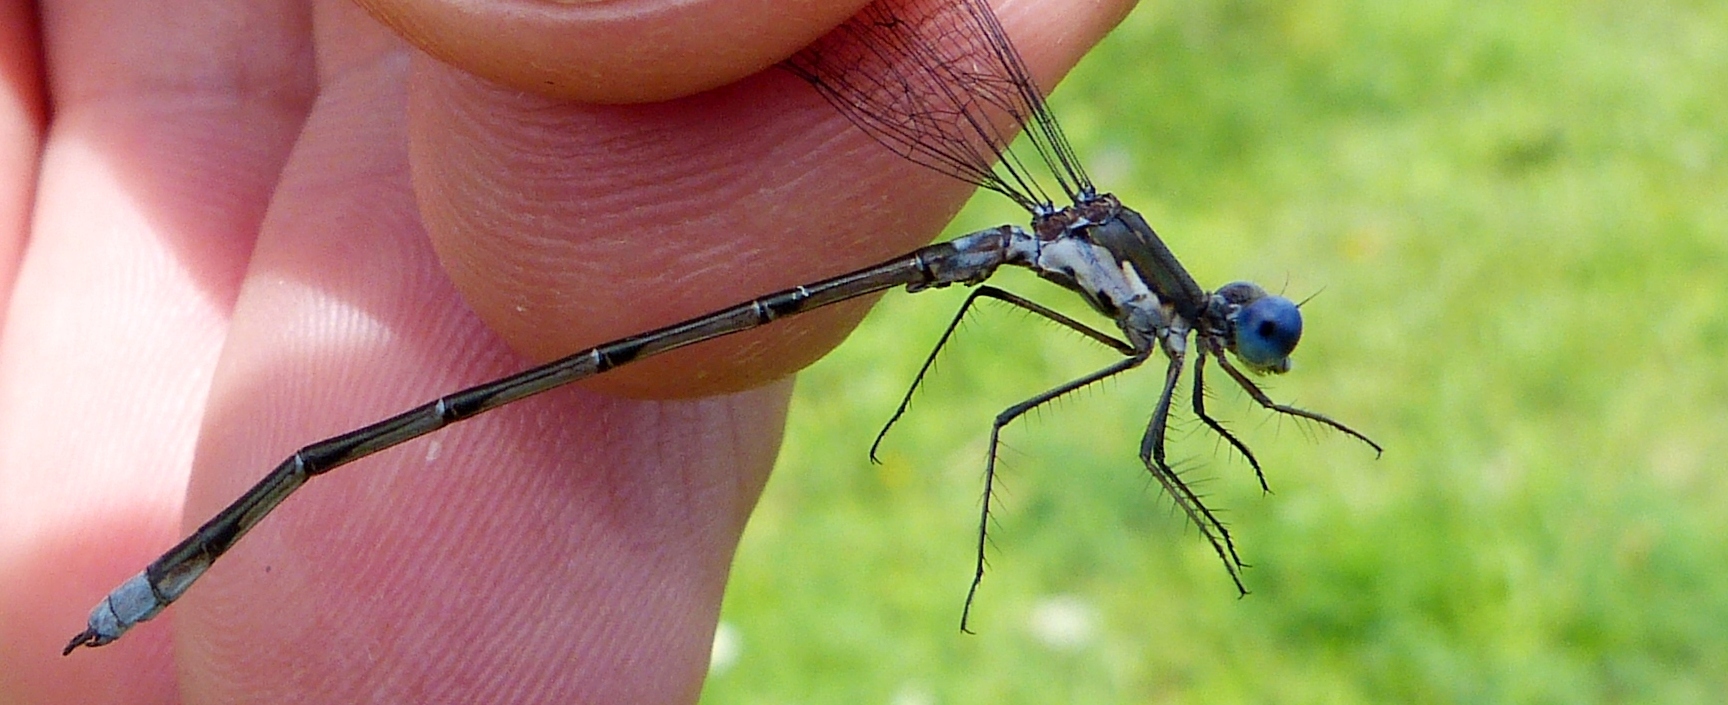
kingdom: Animalia
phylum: Arthropoda
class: Insecta
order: Odonata
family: Lestidae
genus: Lestes
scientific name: Lestes congener
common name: Spotted spreadwing
